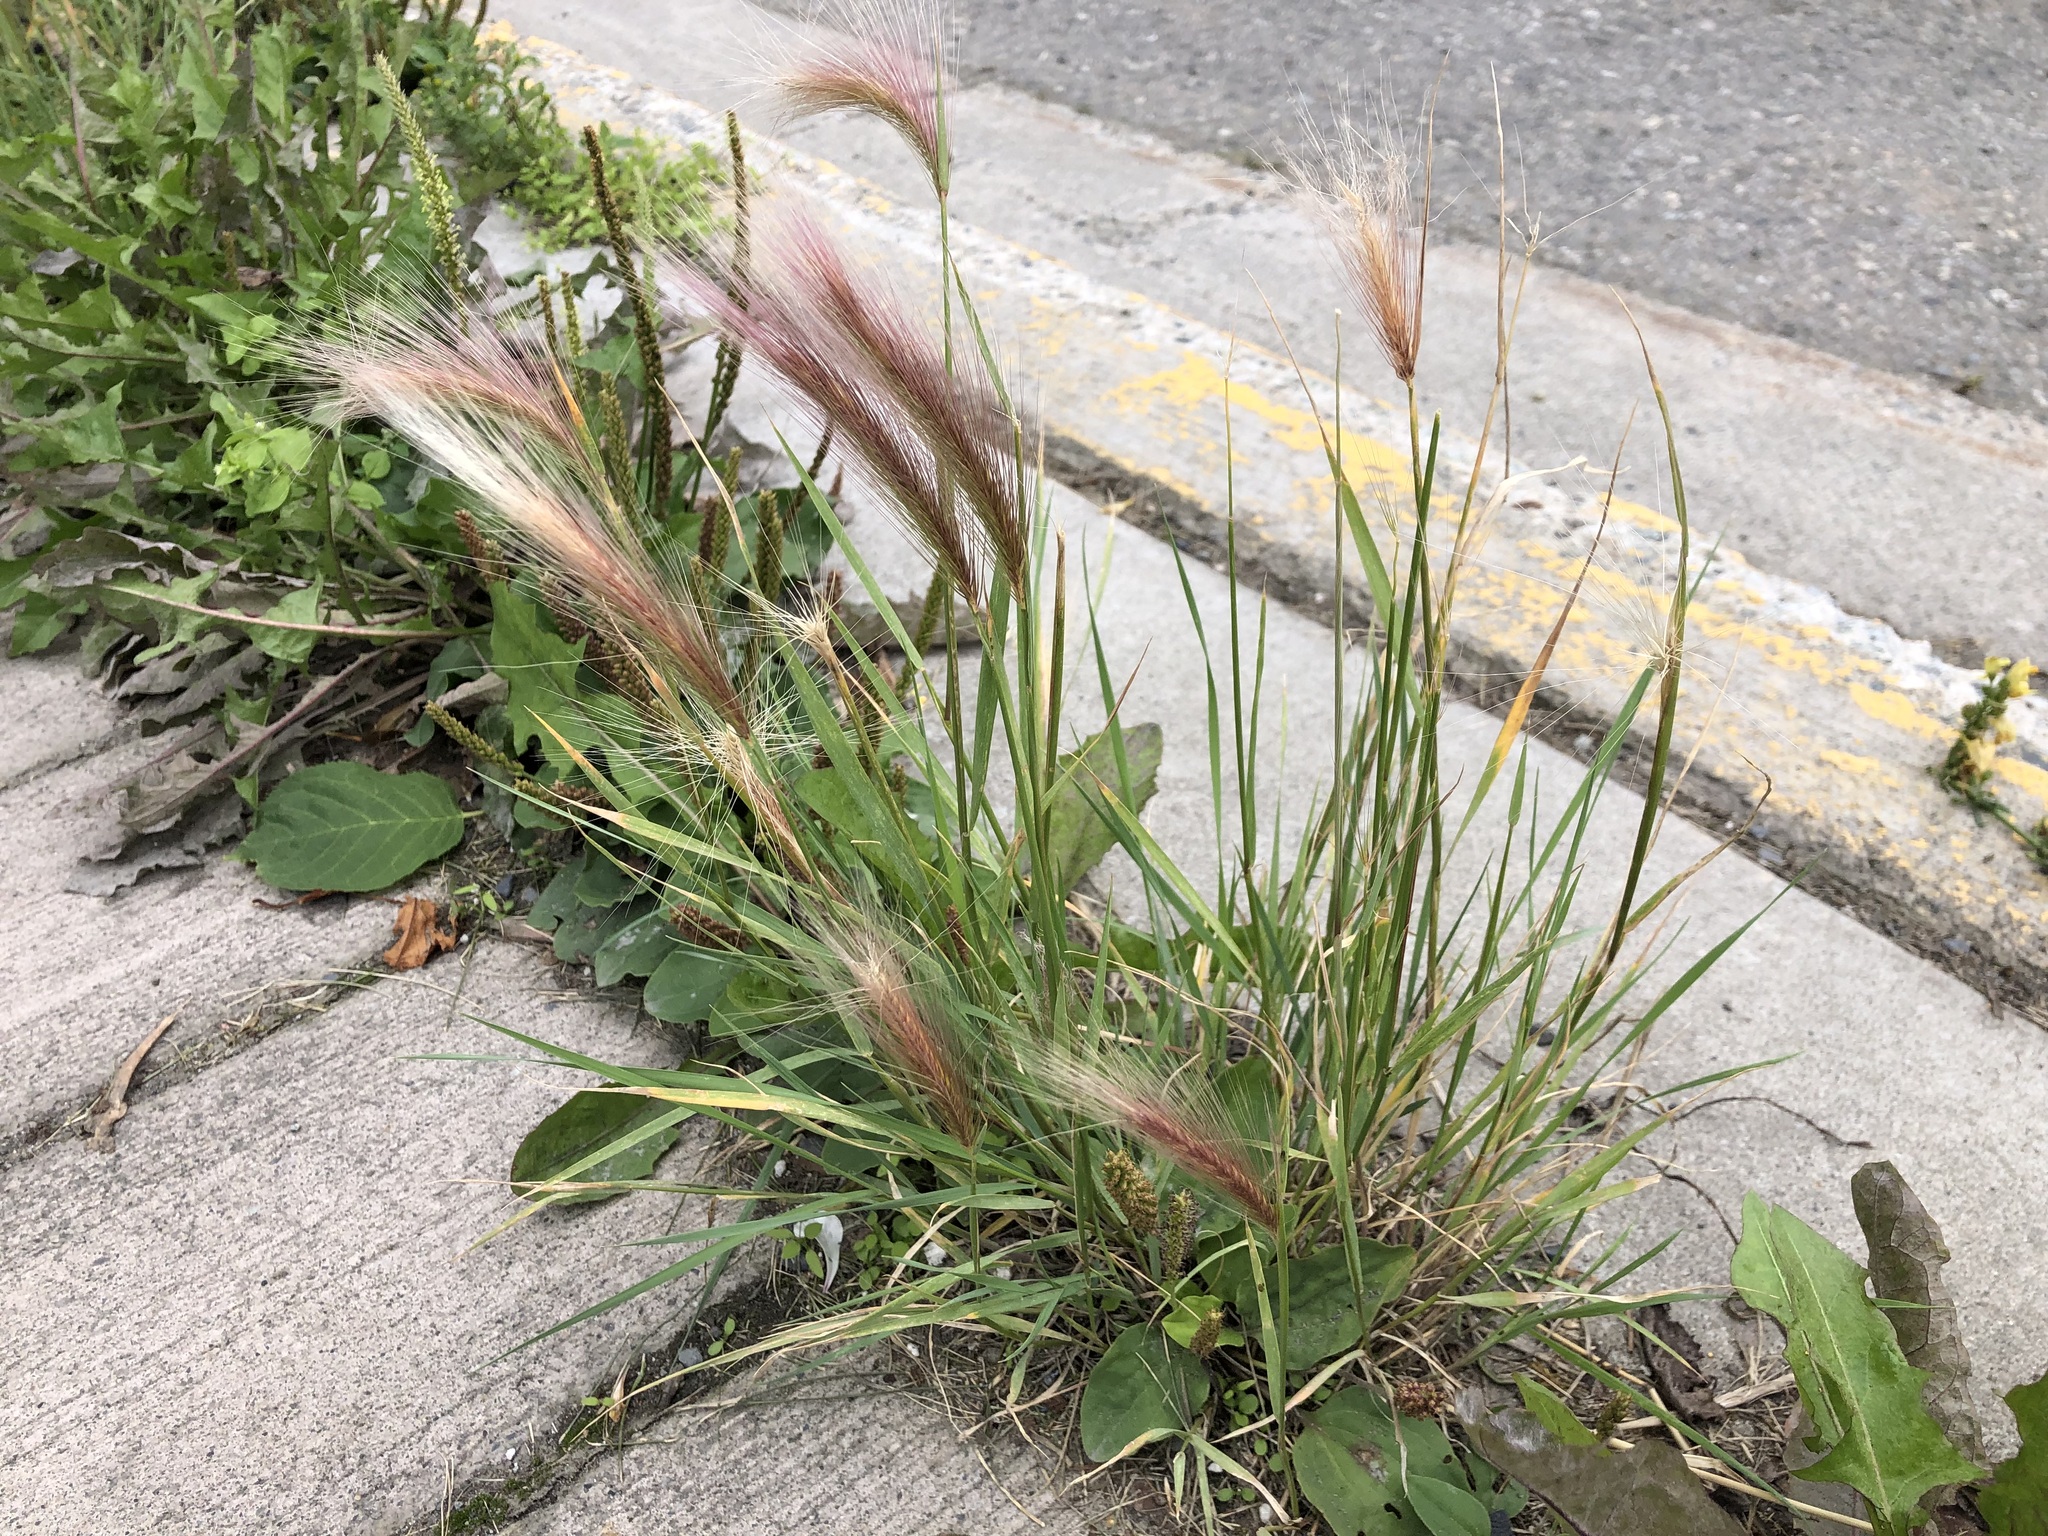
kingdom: Plantae
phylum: Tracheophyta
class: Liliopsida
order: Poales
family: Poaceae
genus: Hordeum
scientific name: Hordeum jubatum
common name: Foxtail barley
